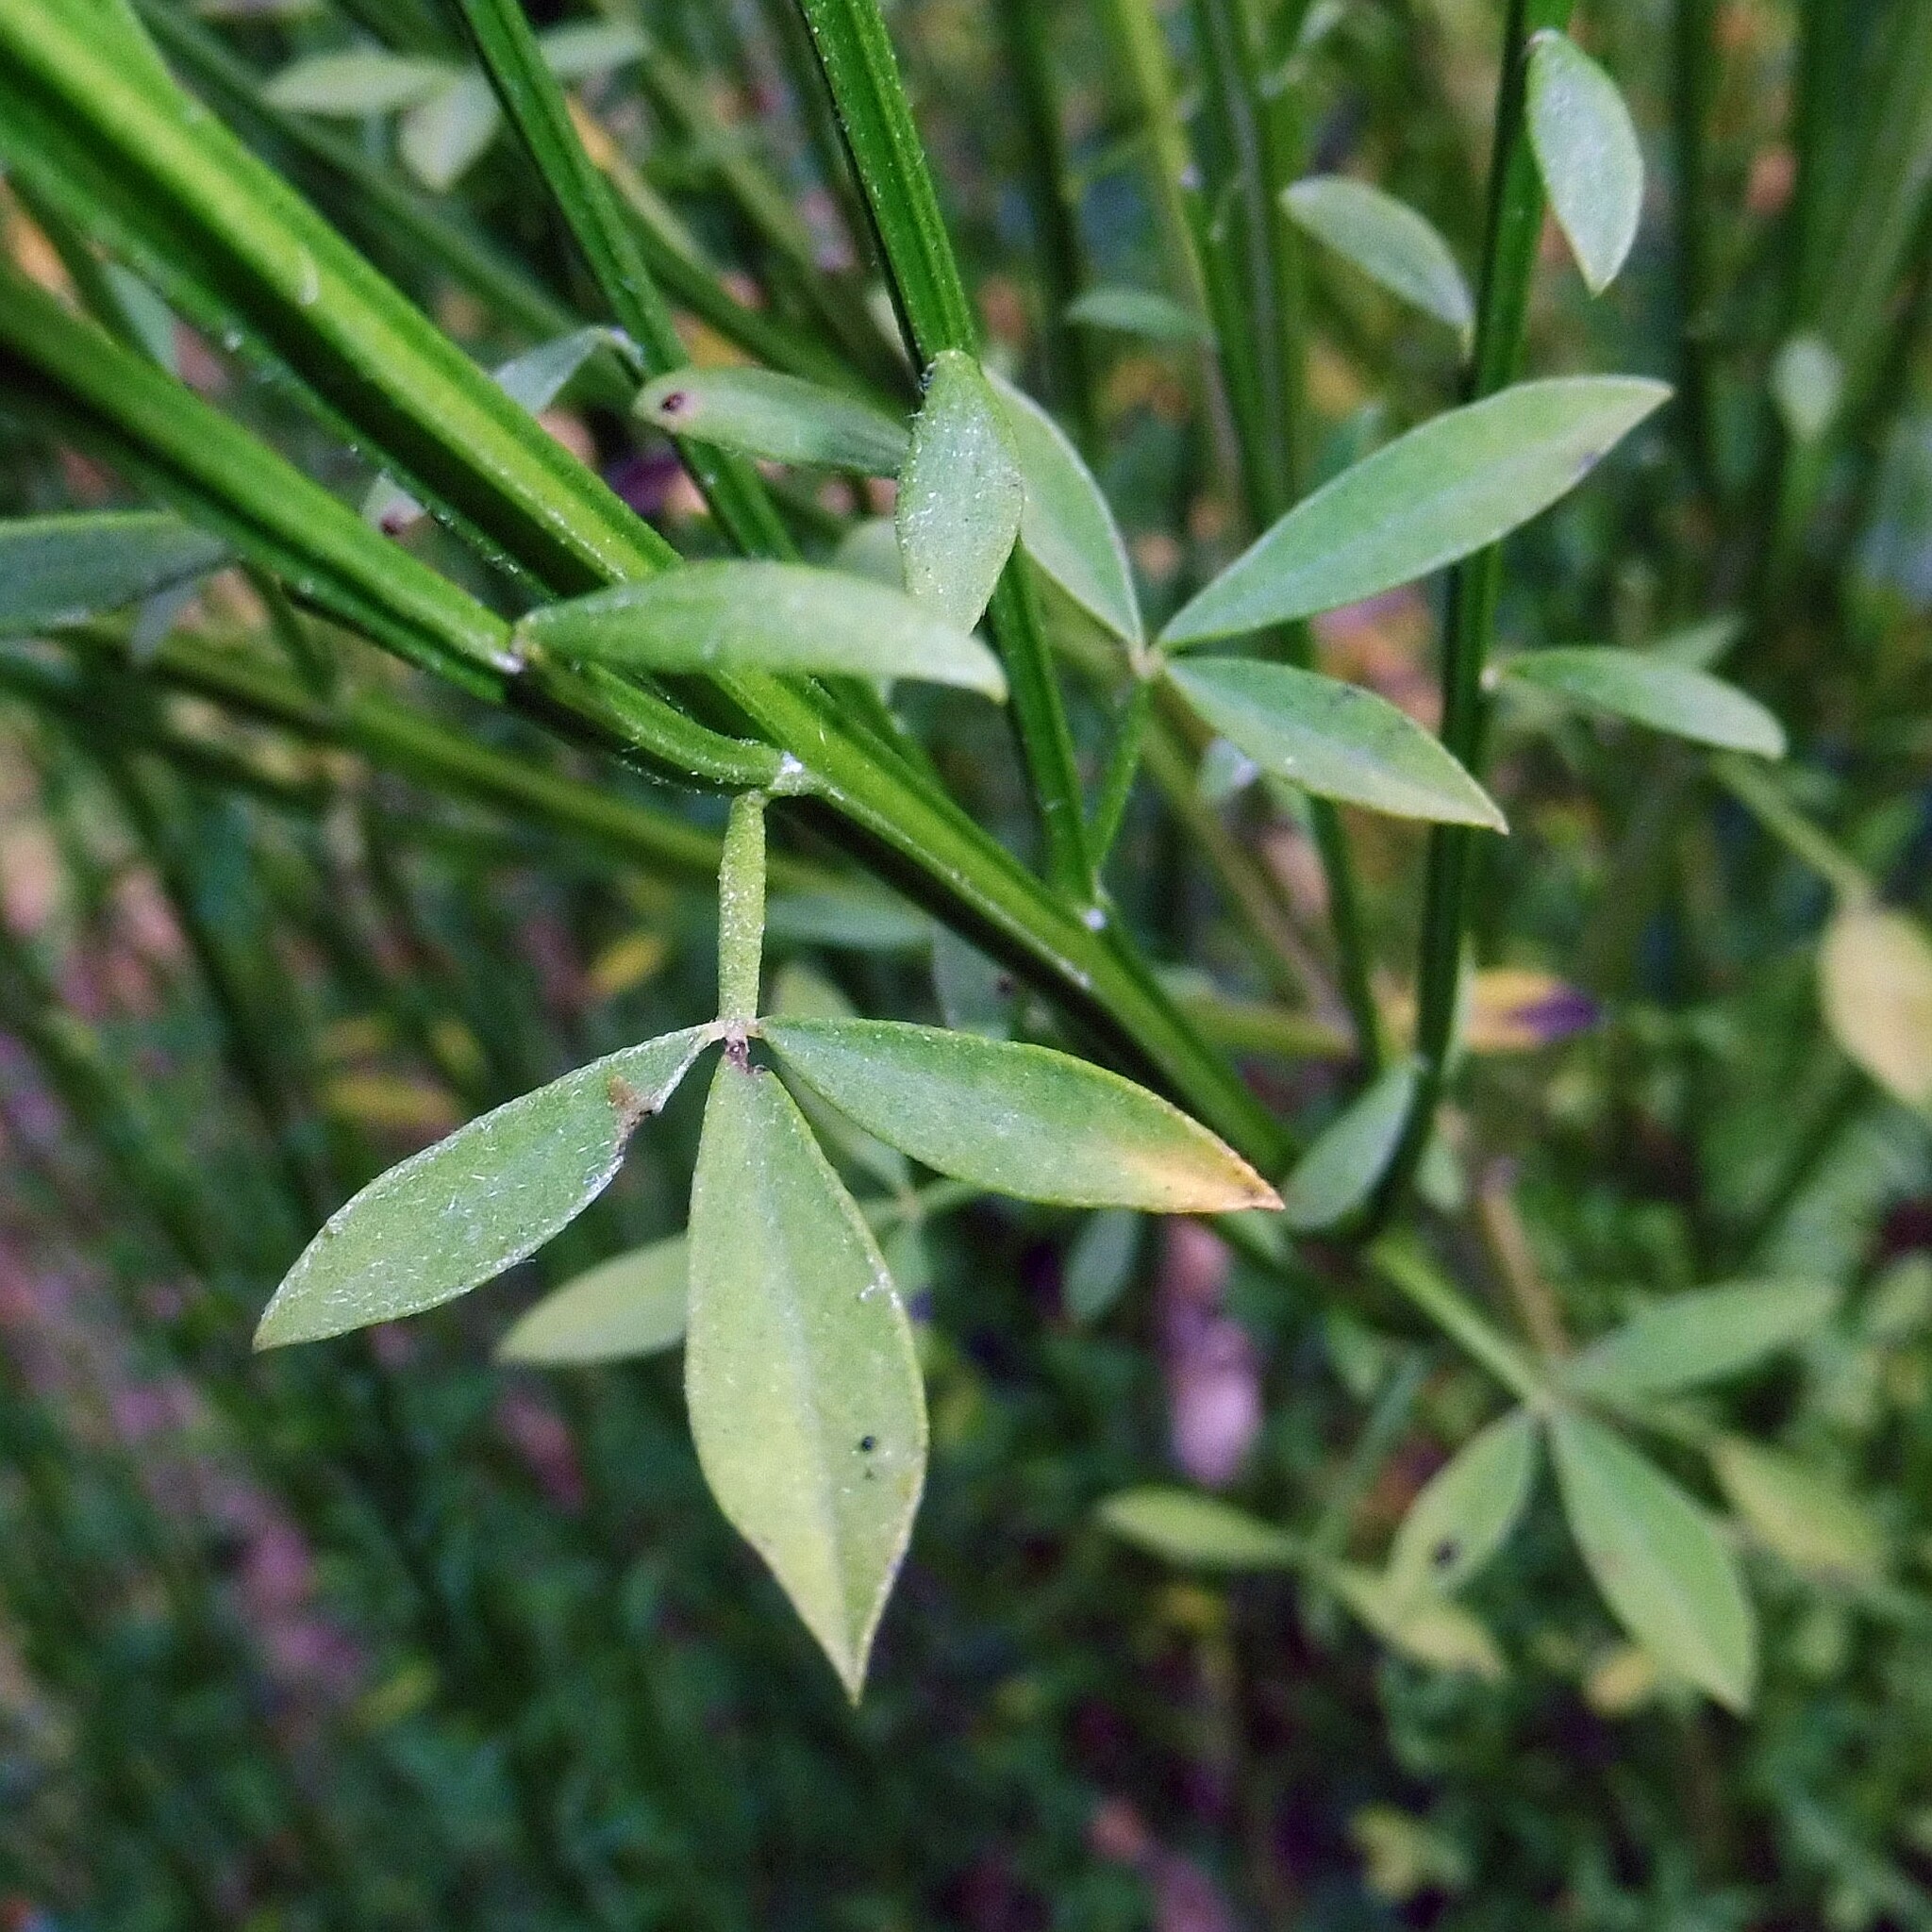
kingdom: Plantae
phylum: Tracheophyta
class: Magnoliopsida
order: Fabales
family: Fabaceae
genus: Cytisus
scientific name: Cytisus scoparius
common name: Scotch broom
